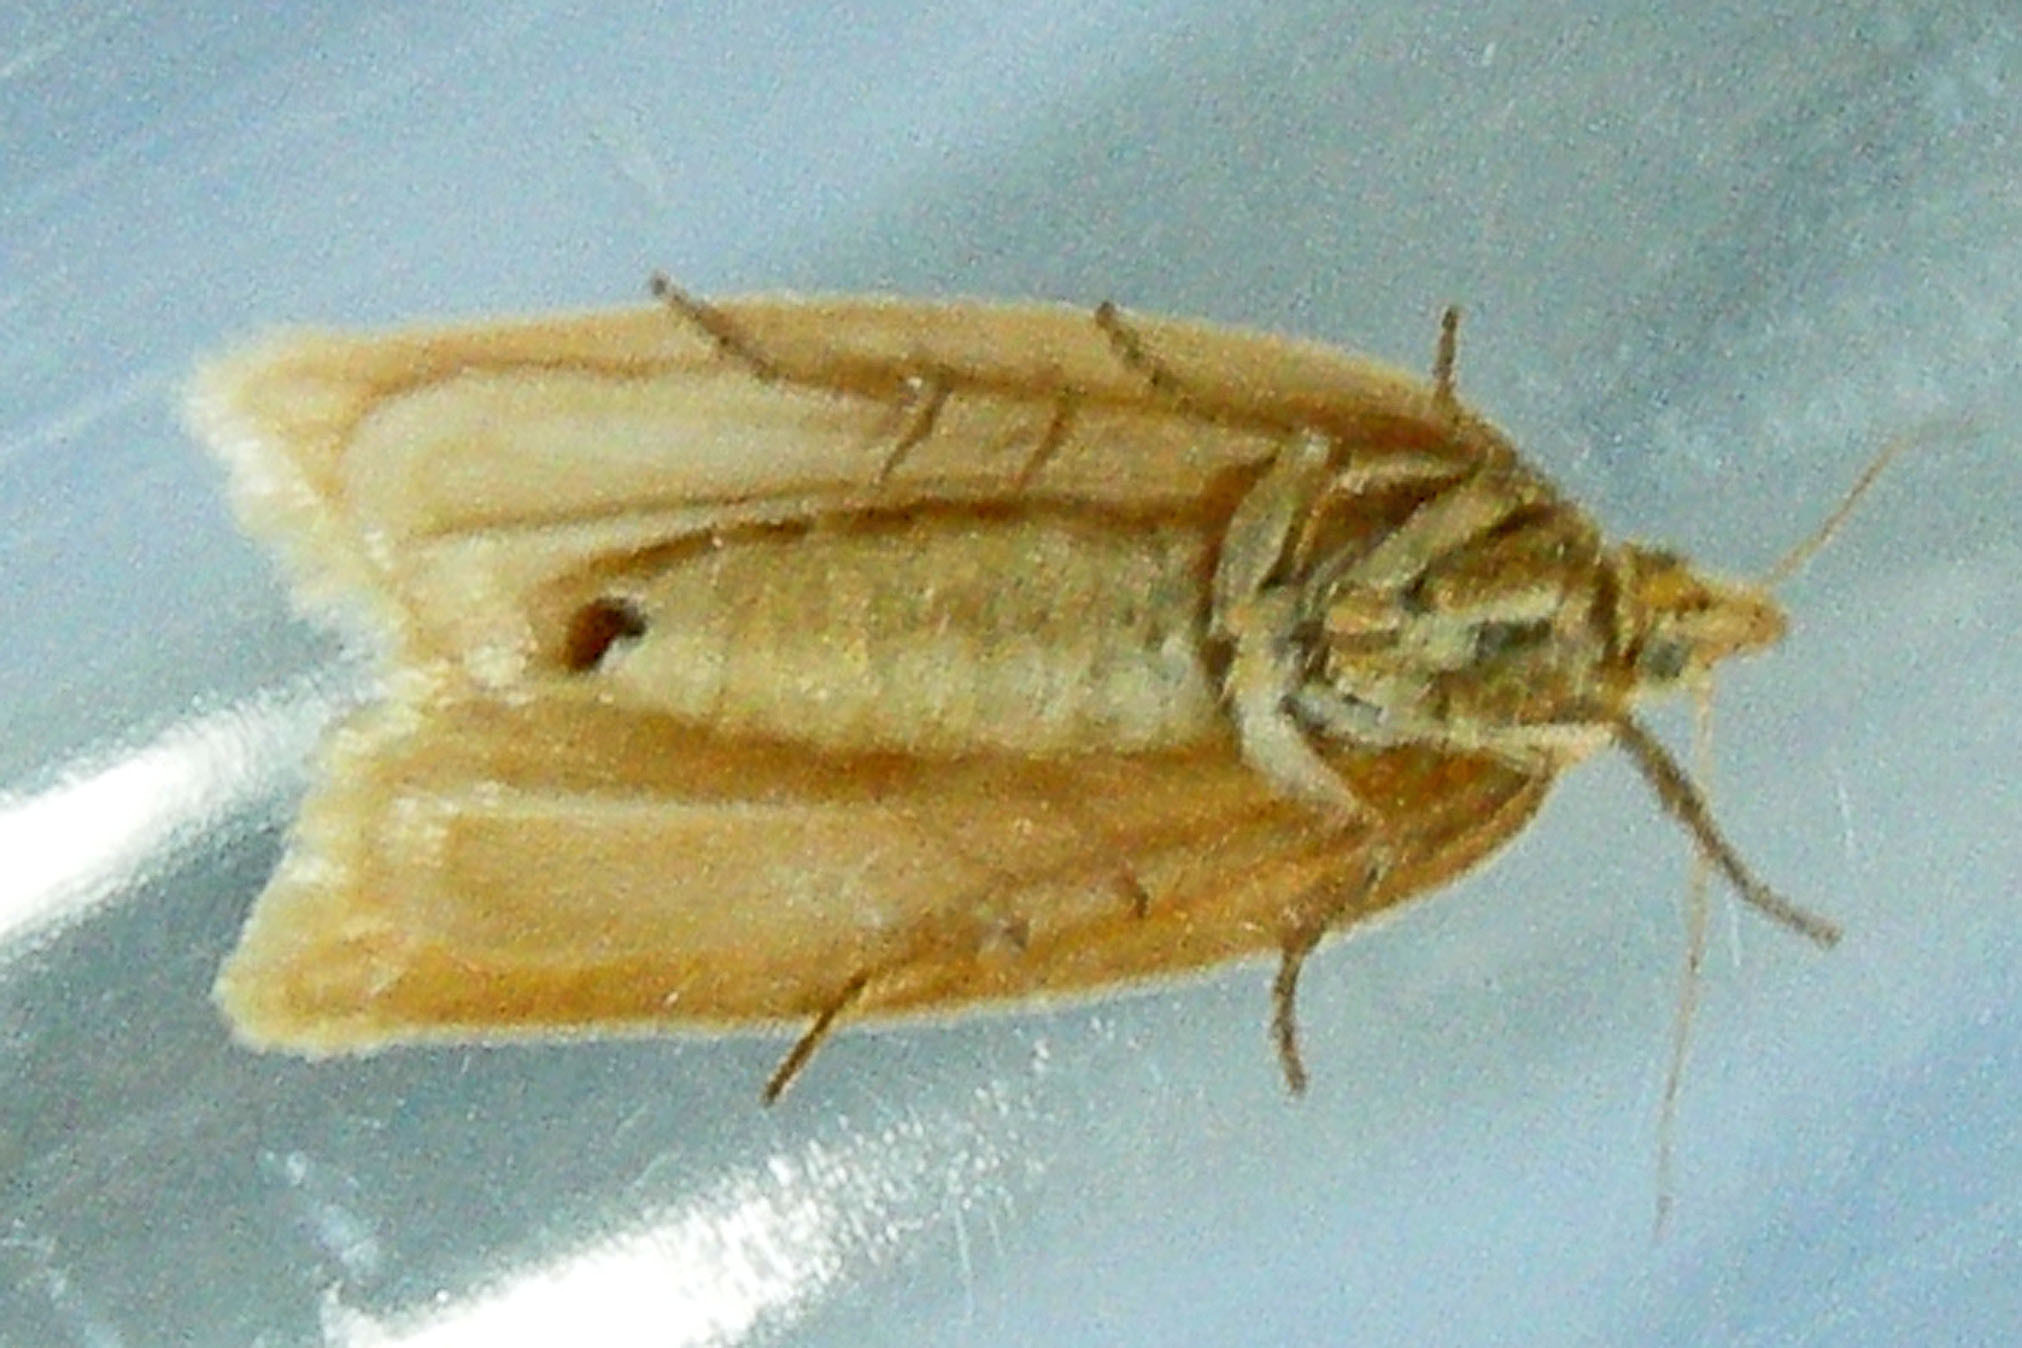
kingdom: Animalia
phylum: Arthropoda
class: Insecta
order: Lepidoptera
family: Tortricidae
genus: Clepsis
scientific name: Clepsis clemensiana
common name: Clemens' clepsis moth
